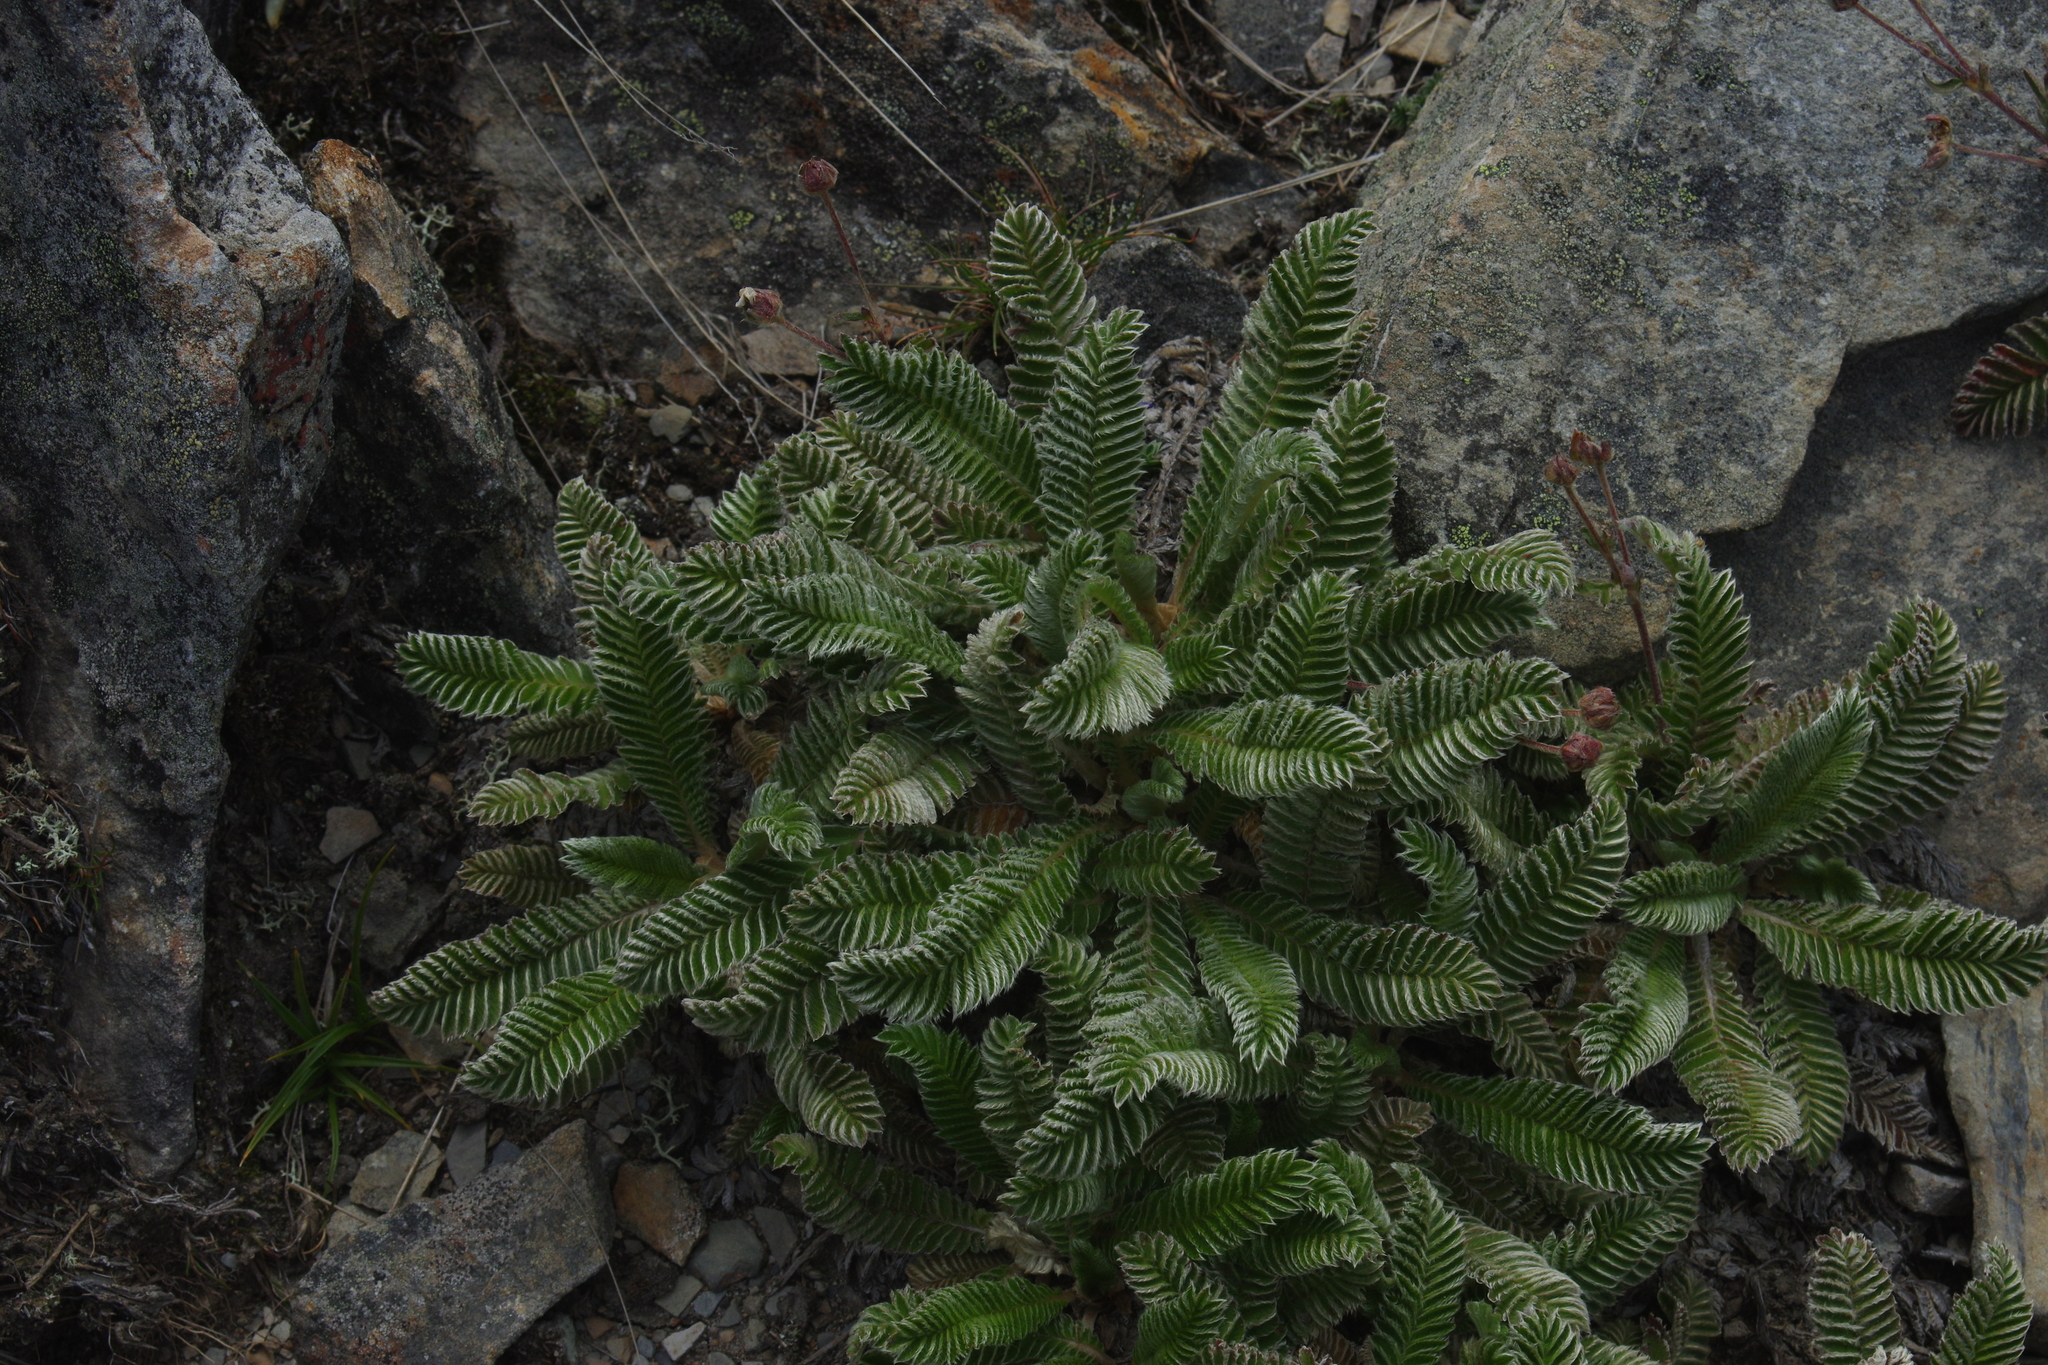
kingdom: Plantae
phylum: Tracheophyta
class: Magnoliopsida
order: Rosales
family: Rosaceae
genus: Argentina
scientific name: Argentina tugitakensis
